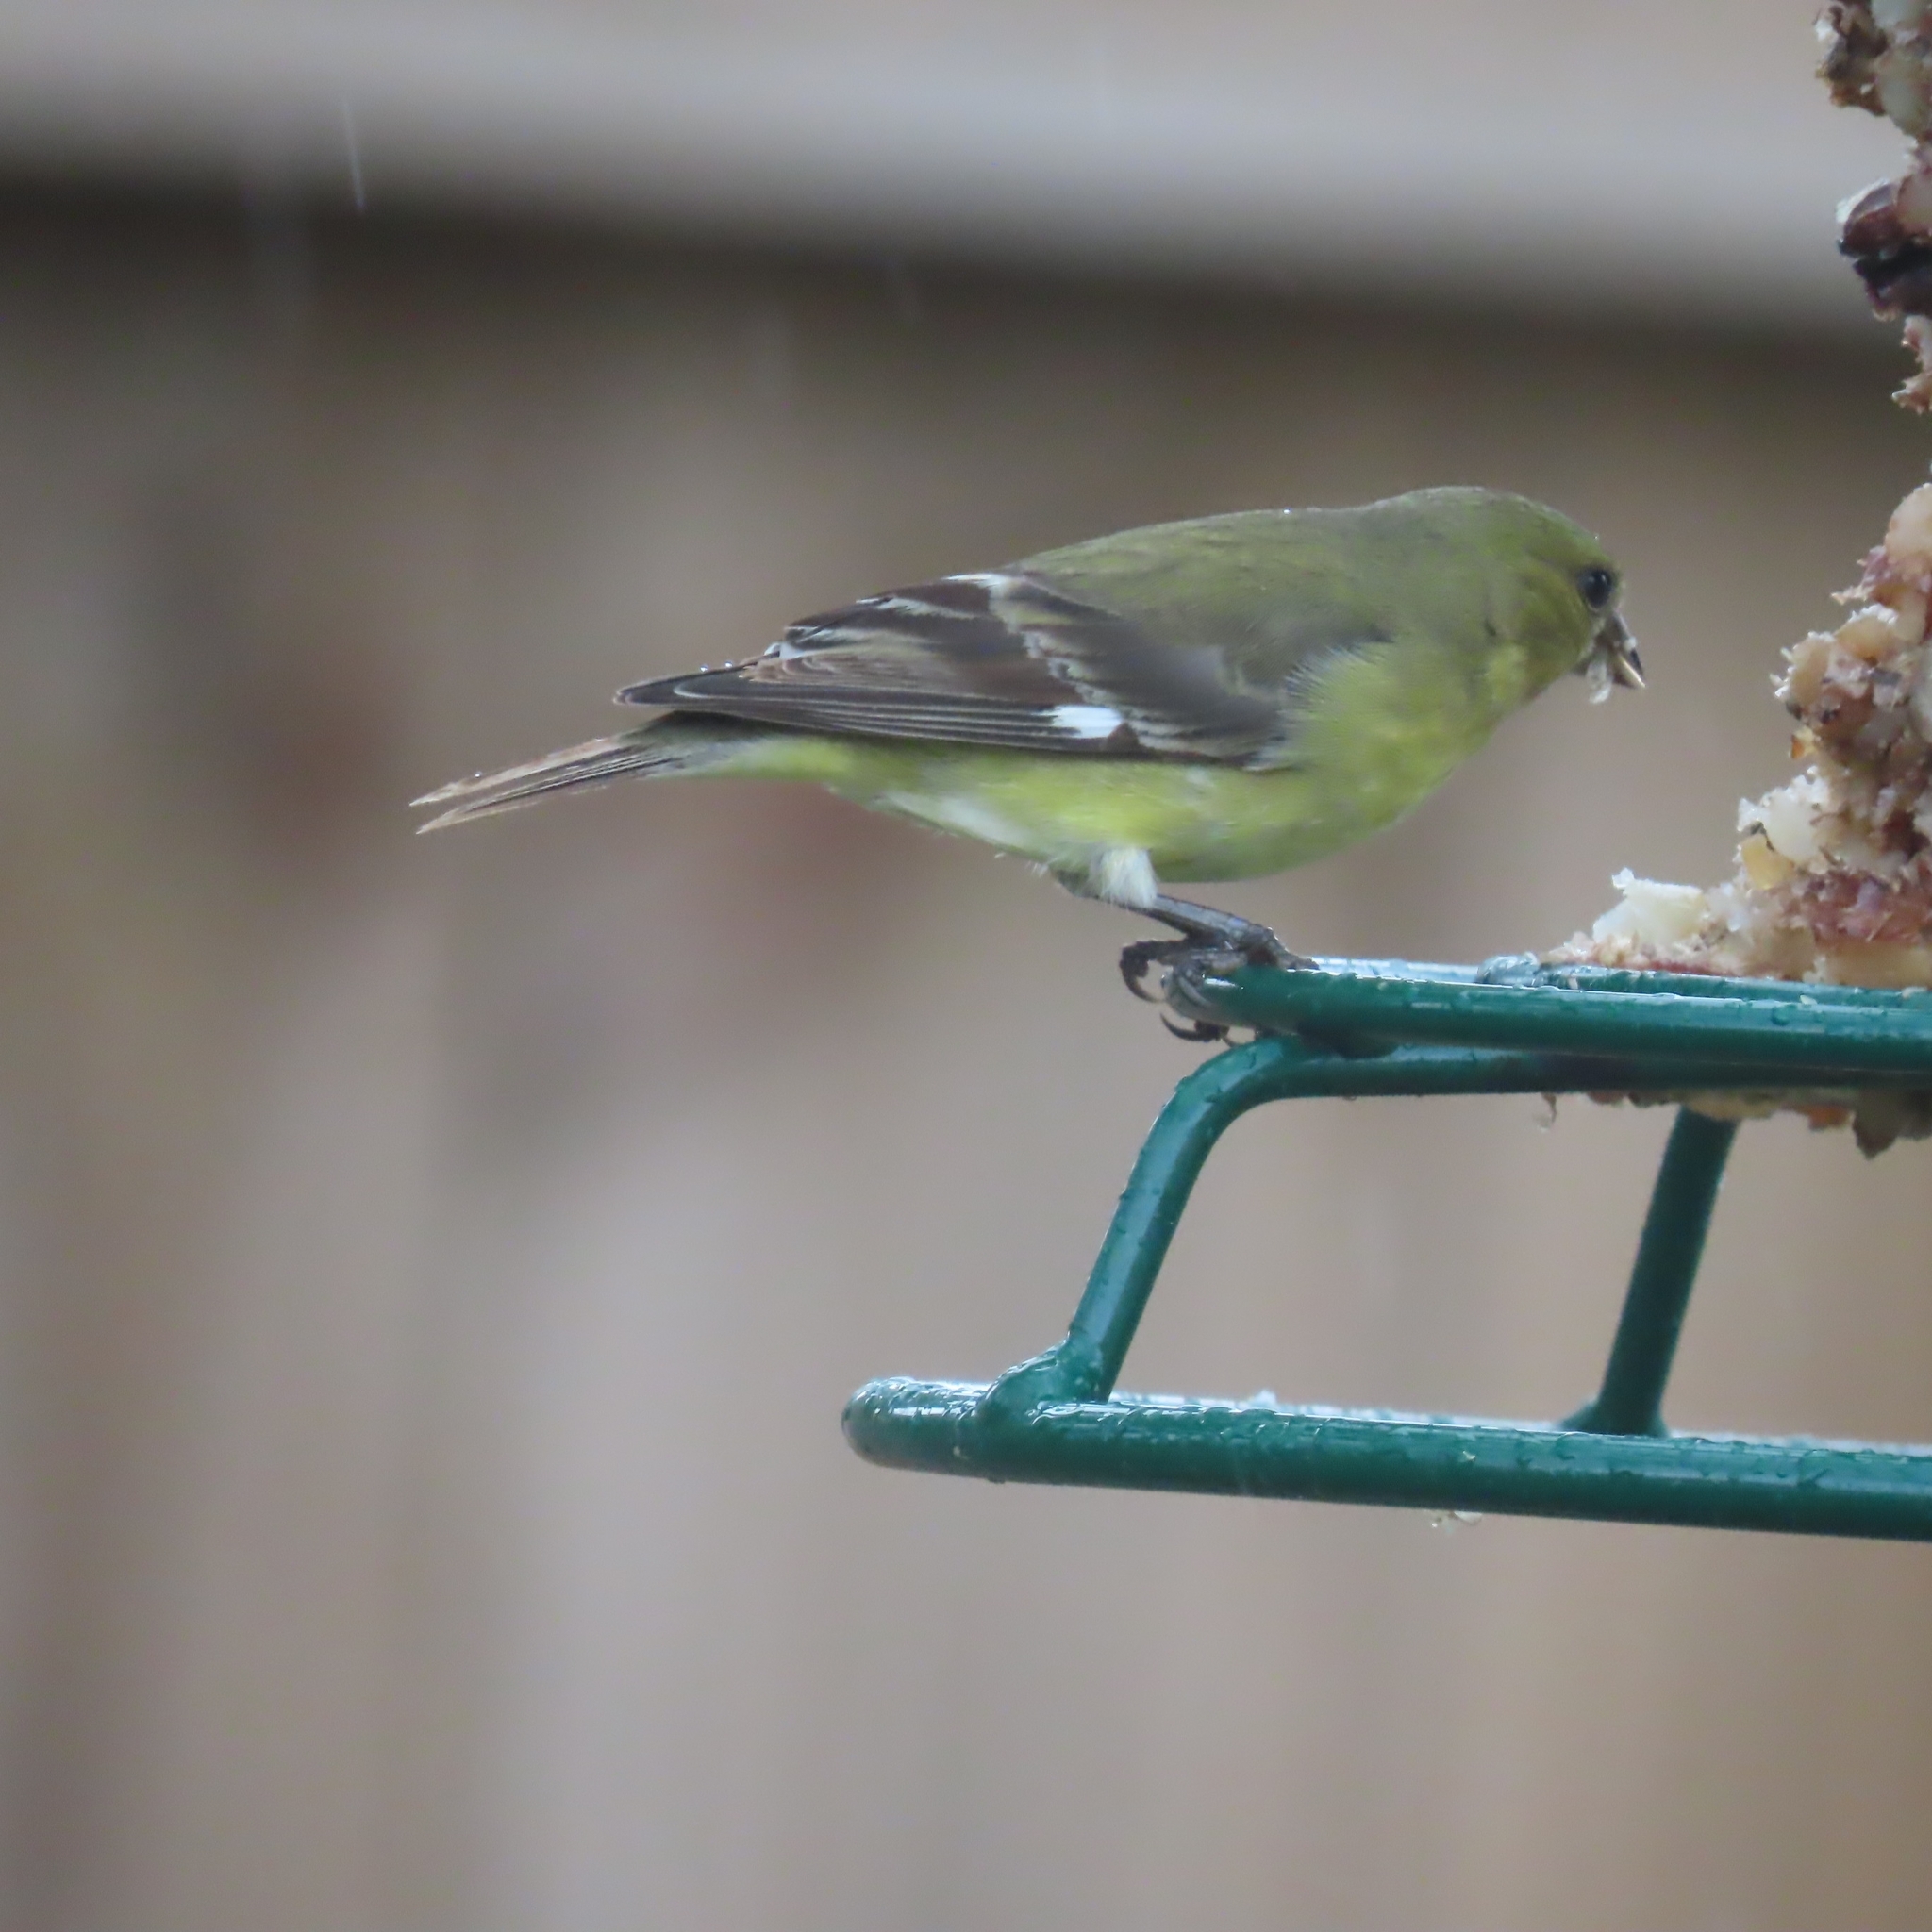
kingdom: Animalia
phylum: Chordata
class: Aves
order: Passeriformes
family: Fringillidae
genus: Spinus
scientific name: Spinus psaltria
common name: Lesser goldfinch
